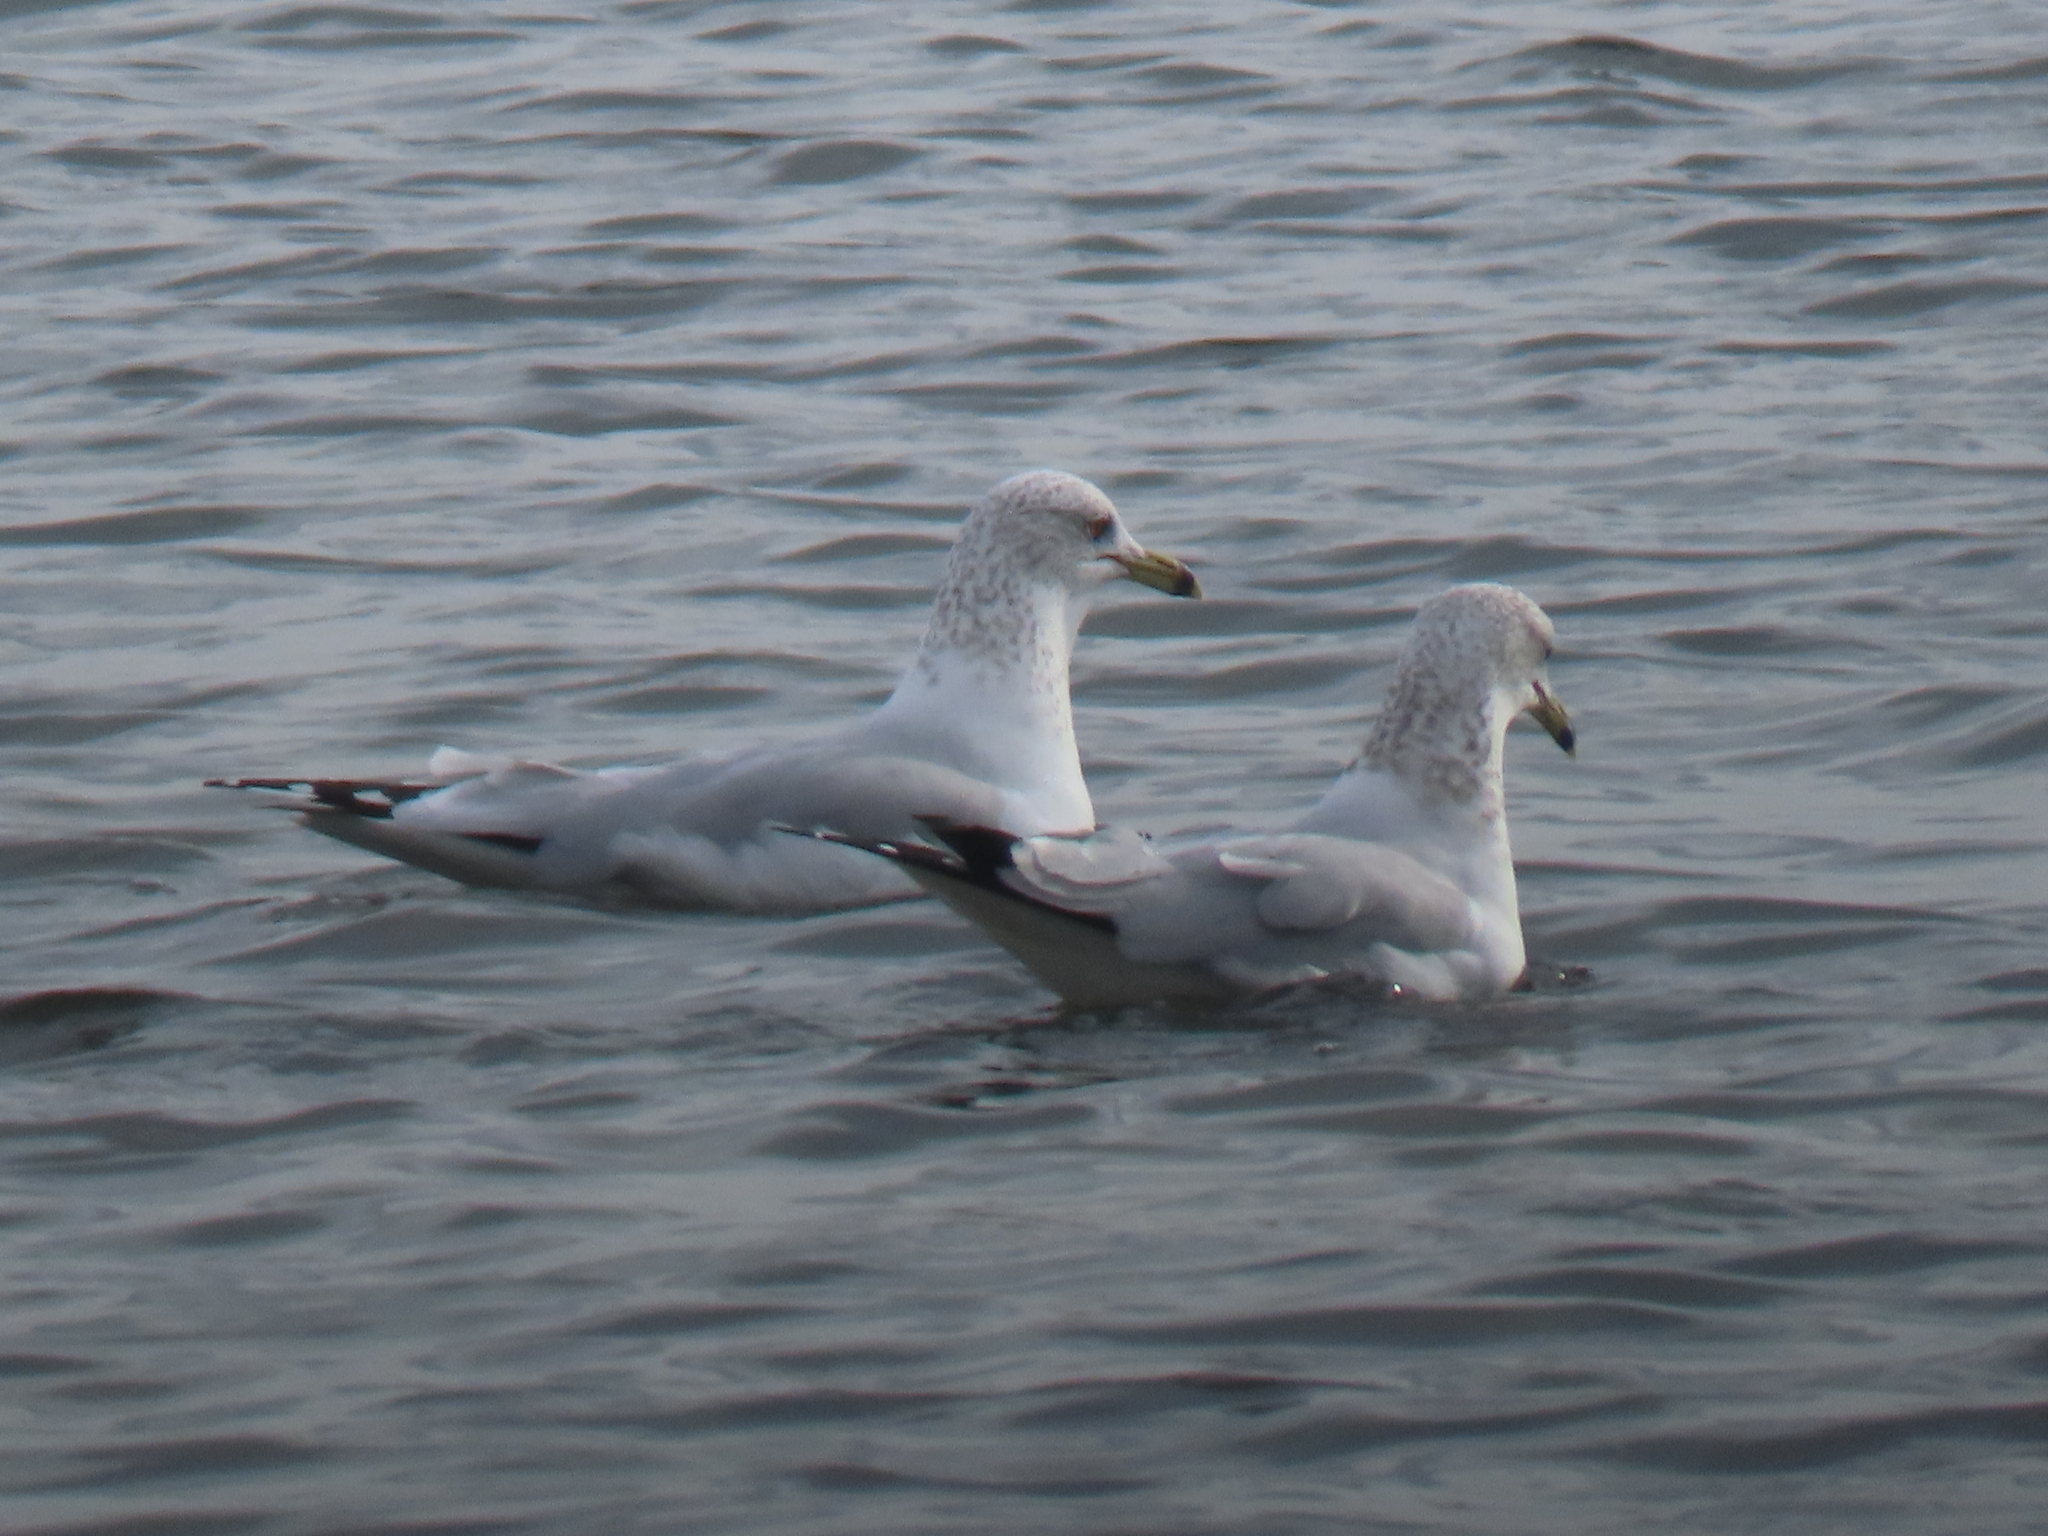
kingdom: Animalia
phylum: Chordata
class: Aves
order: Charadriiformes
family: Laridae
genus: Larus
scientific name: Larus delawarensis
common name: Ring-billed gull
